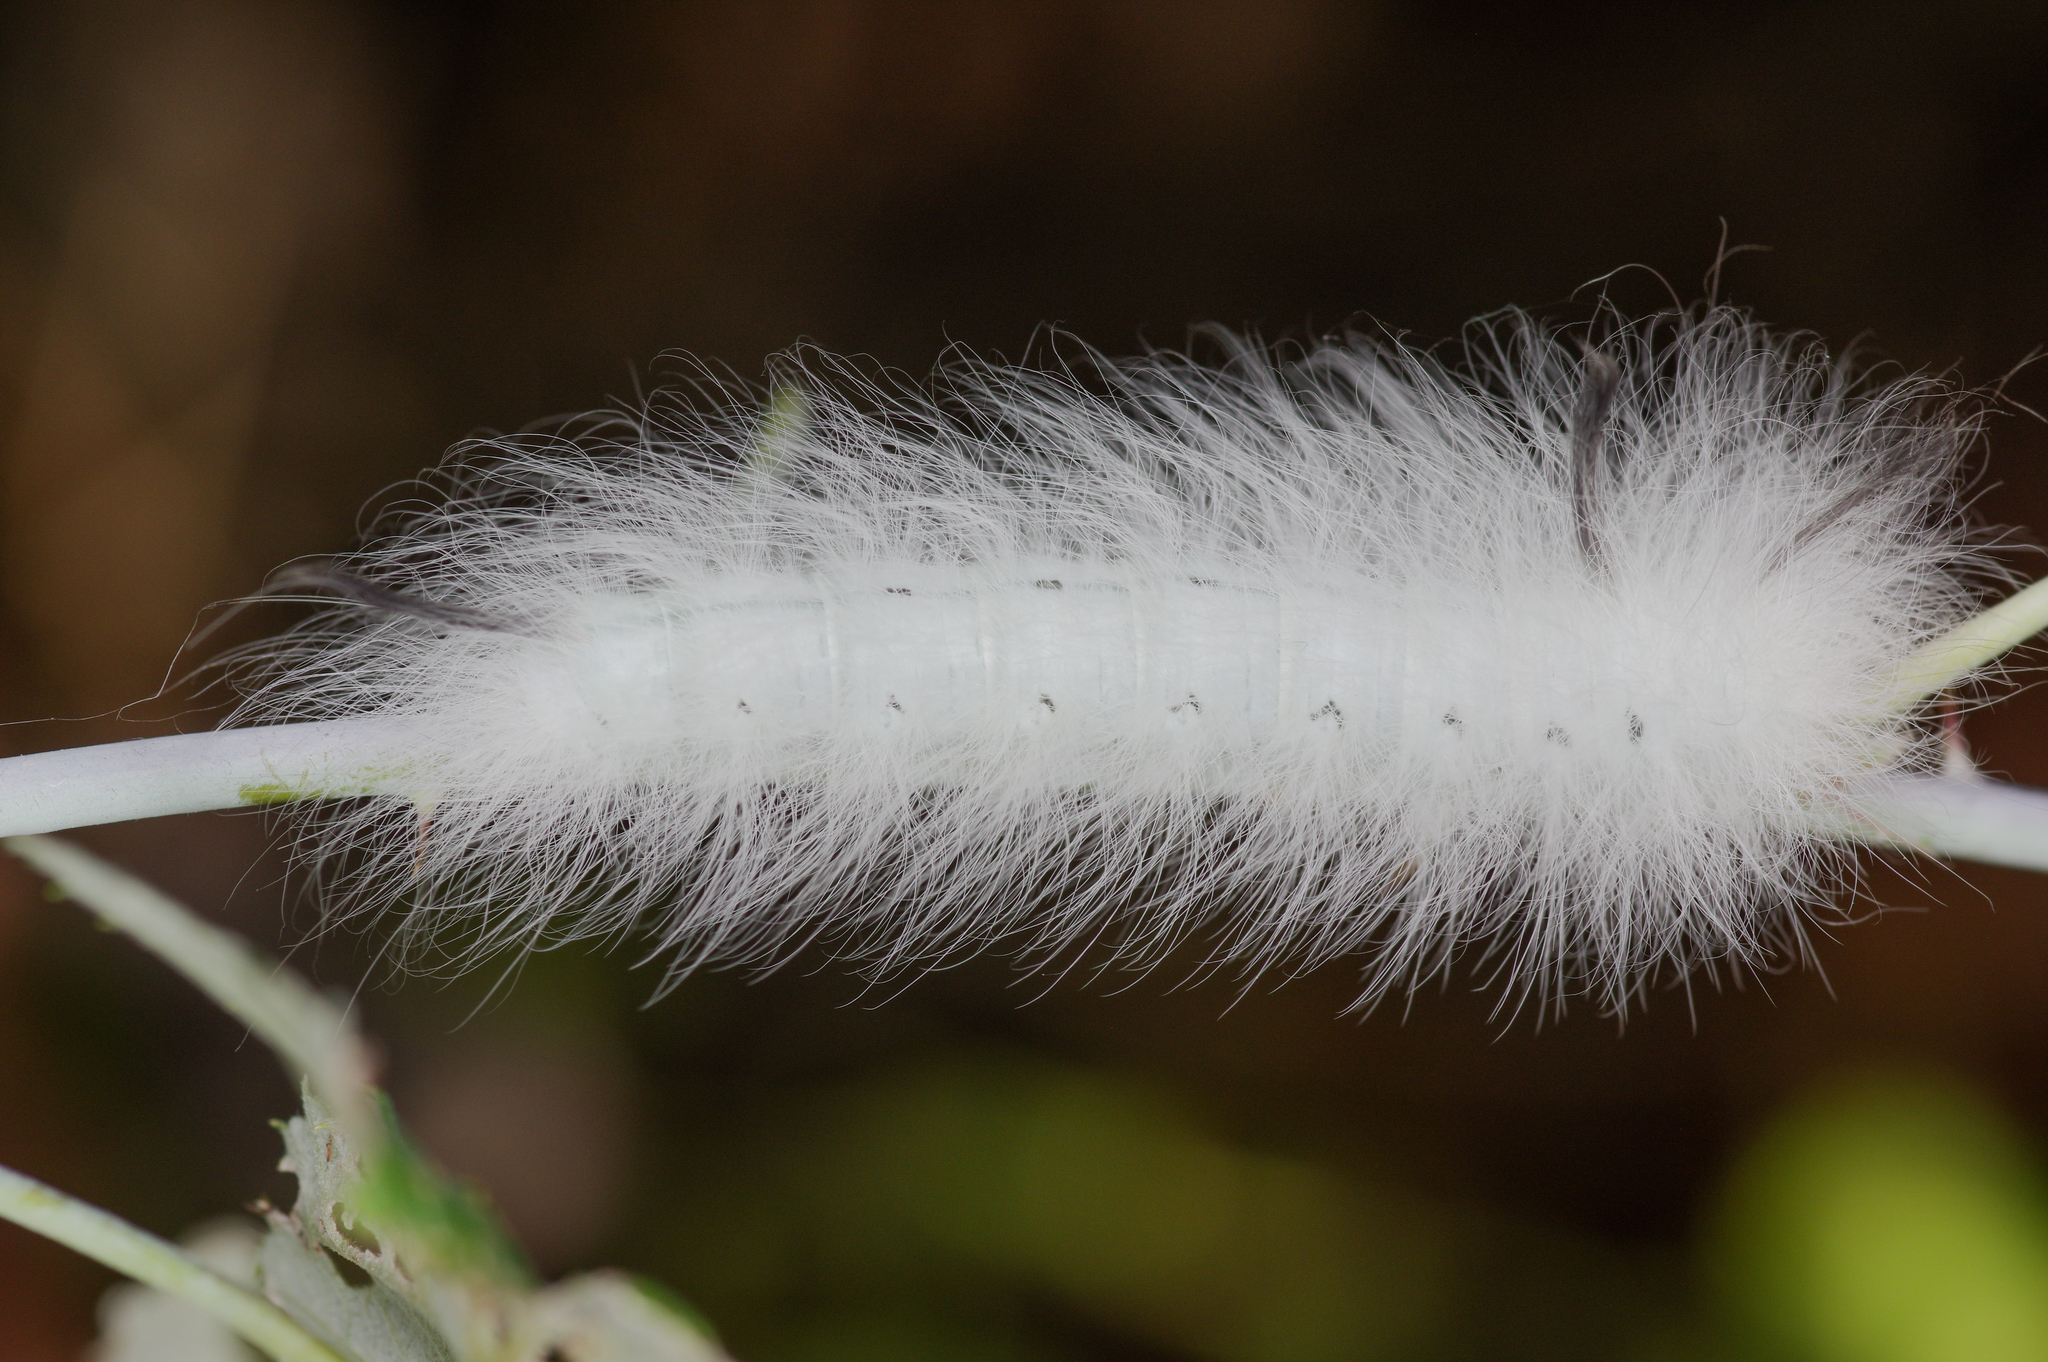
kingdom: Animalia
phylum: Arthropoda
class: Insecta
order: Lepidoptera
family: Apatelodidae
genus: Hygrochroa
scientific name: Hygrochroa Apatelodes torrefacta
